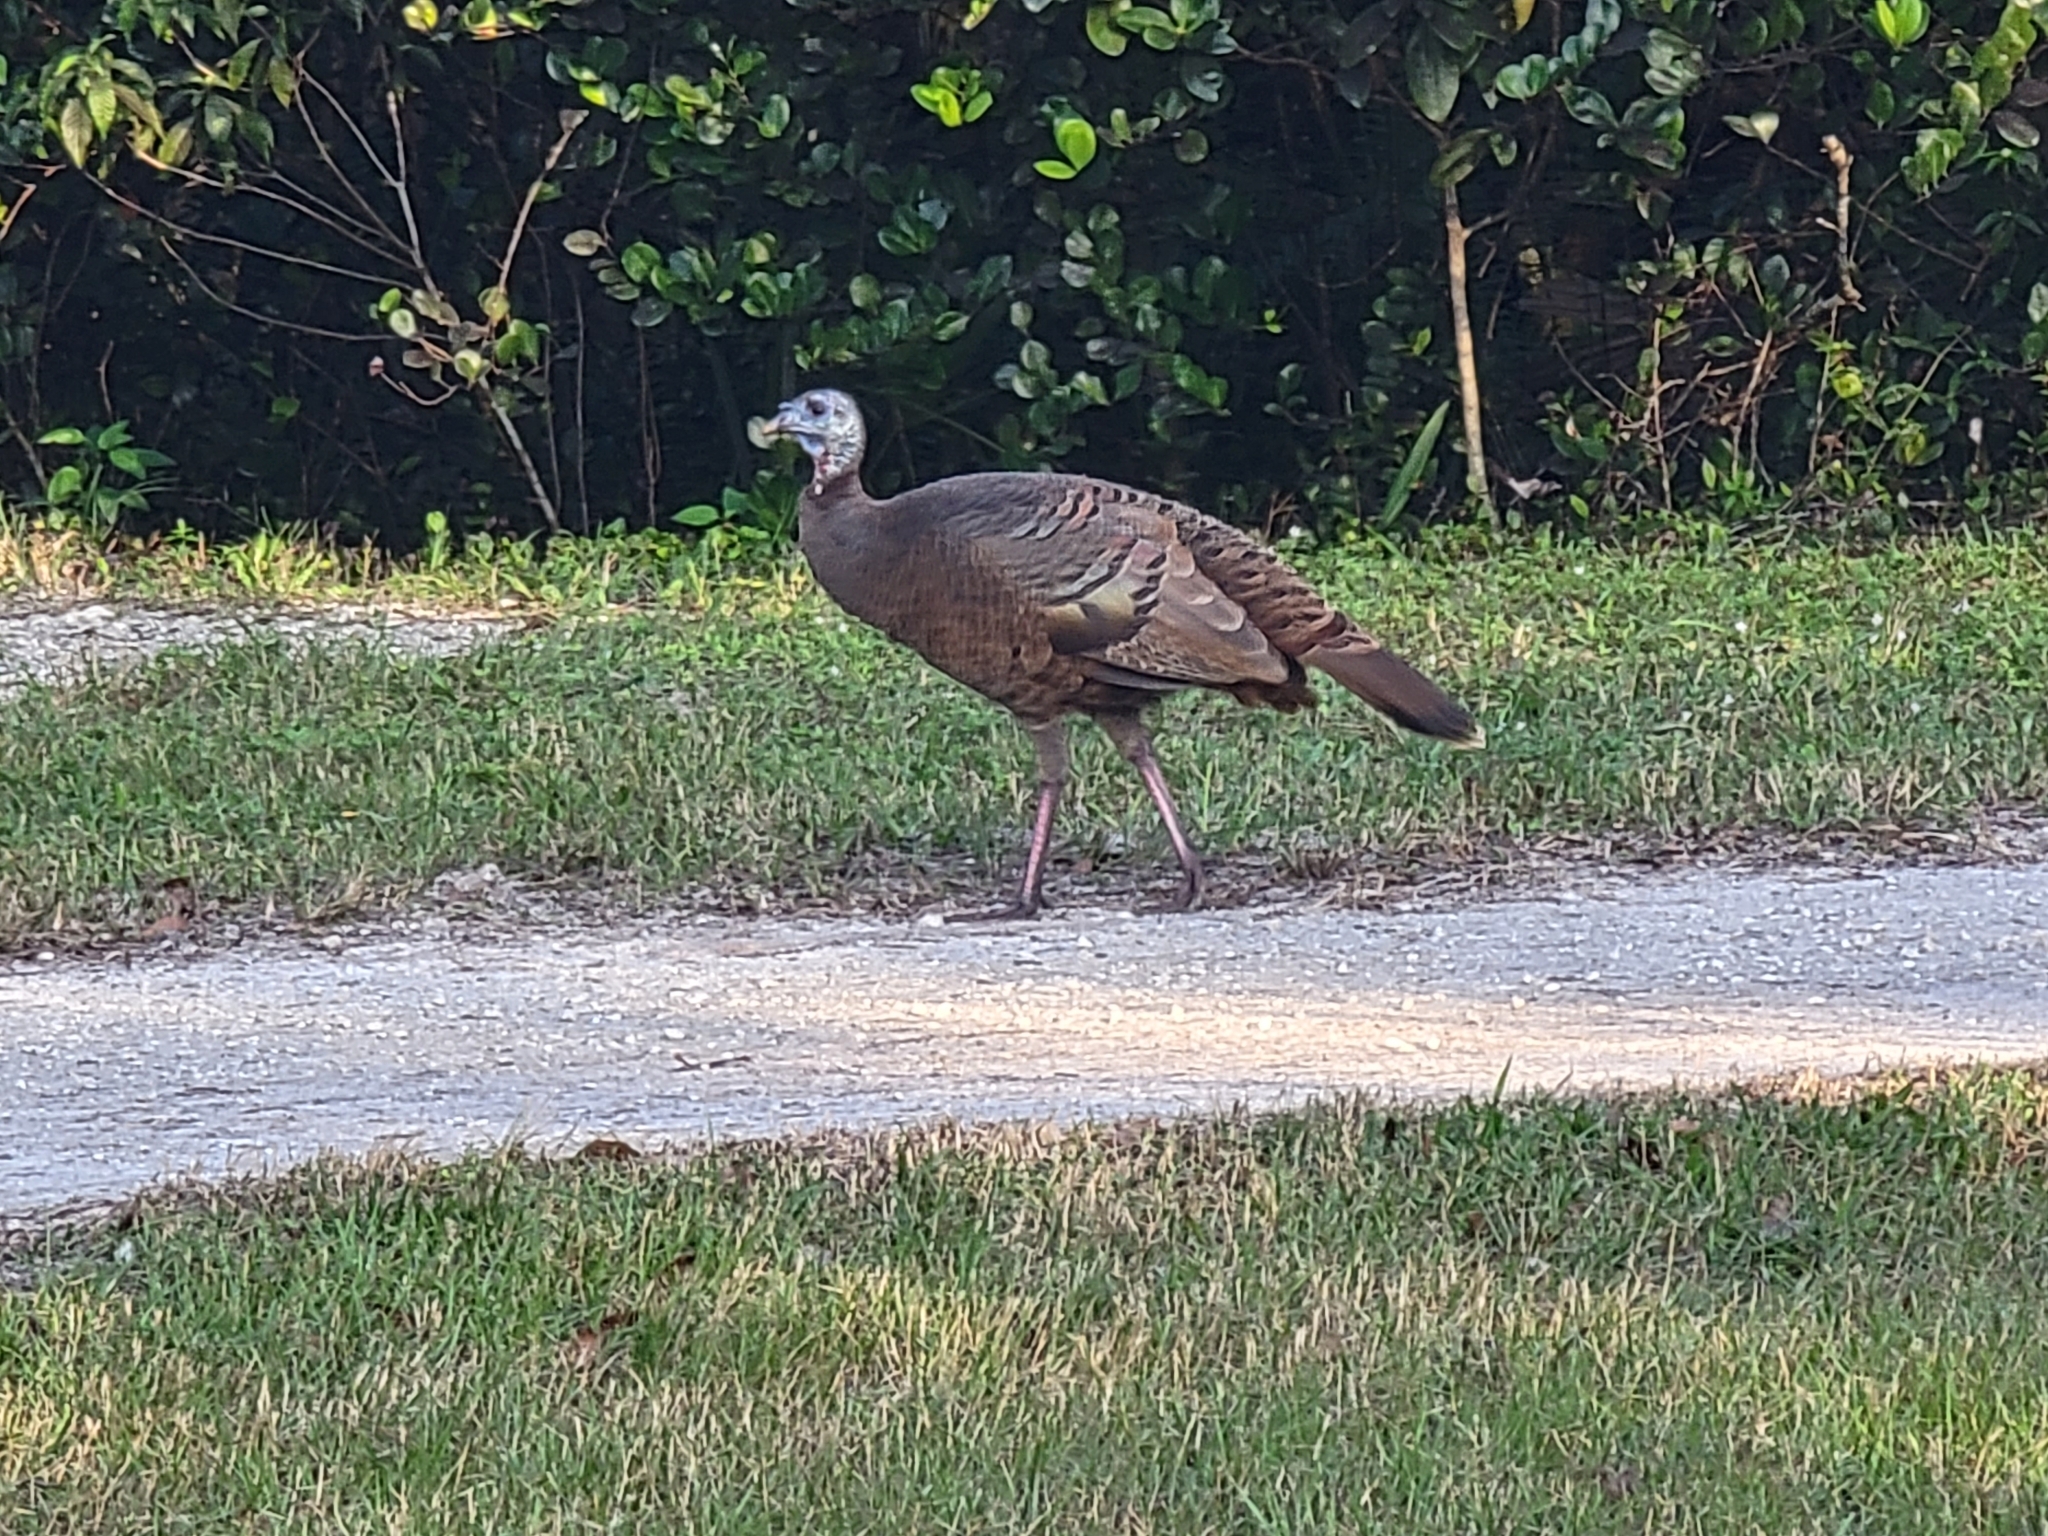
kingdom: Animalia
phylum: Chordata
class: Aves
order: Galliformes
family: Phasianidae
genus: Meleagris
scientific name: Meleagris gallopavo
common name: Wild turkey
